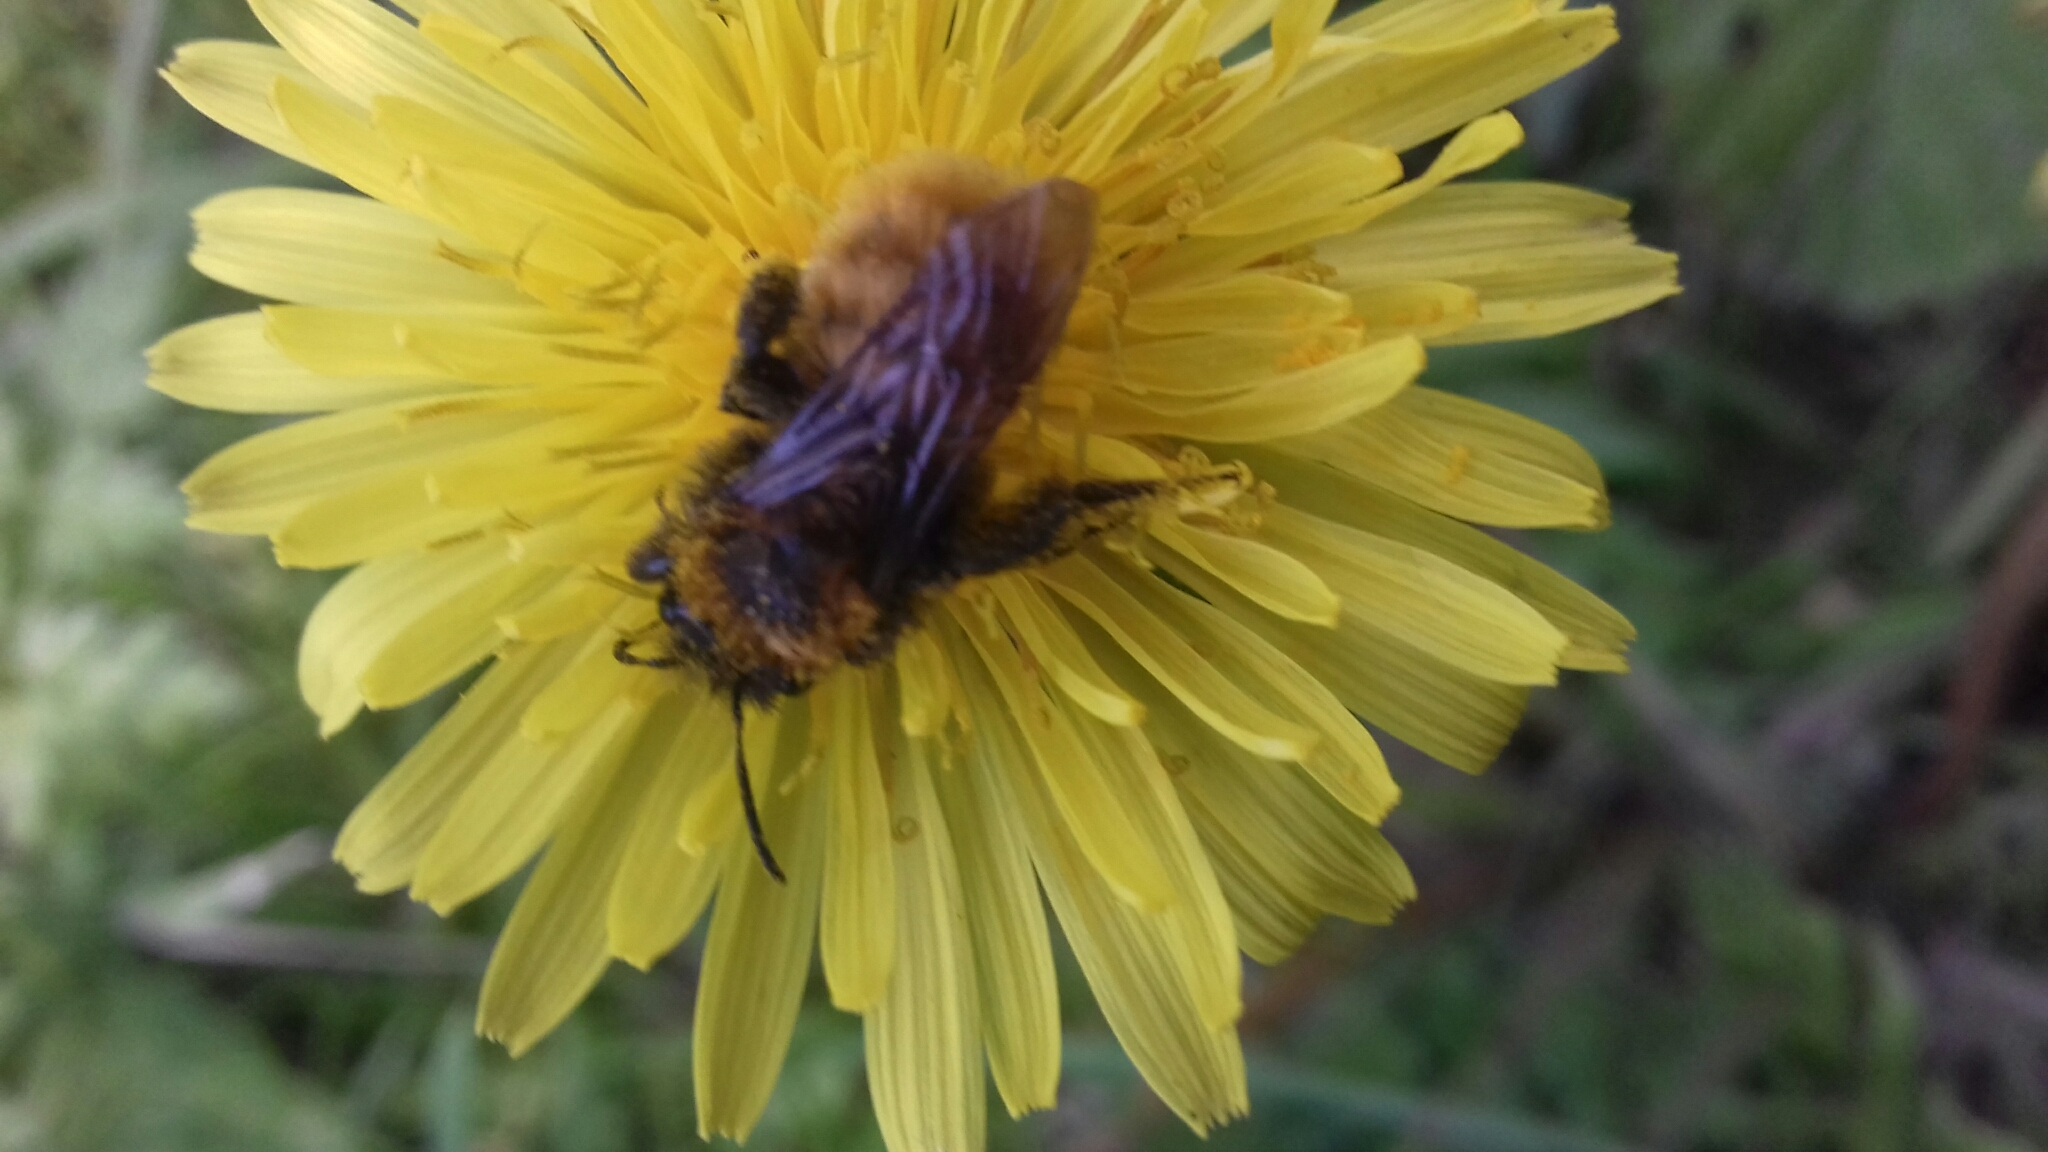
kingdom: Animalia
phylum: Arthropoda
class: Insecta
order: Hymenoptera
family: Andrenidae
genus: Andrena
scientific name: Andrena fulva
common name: Tawny mining bee
